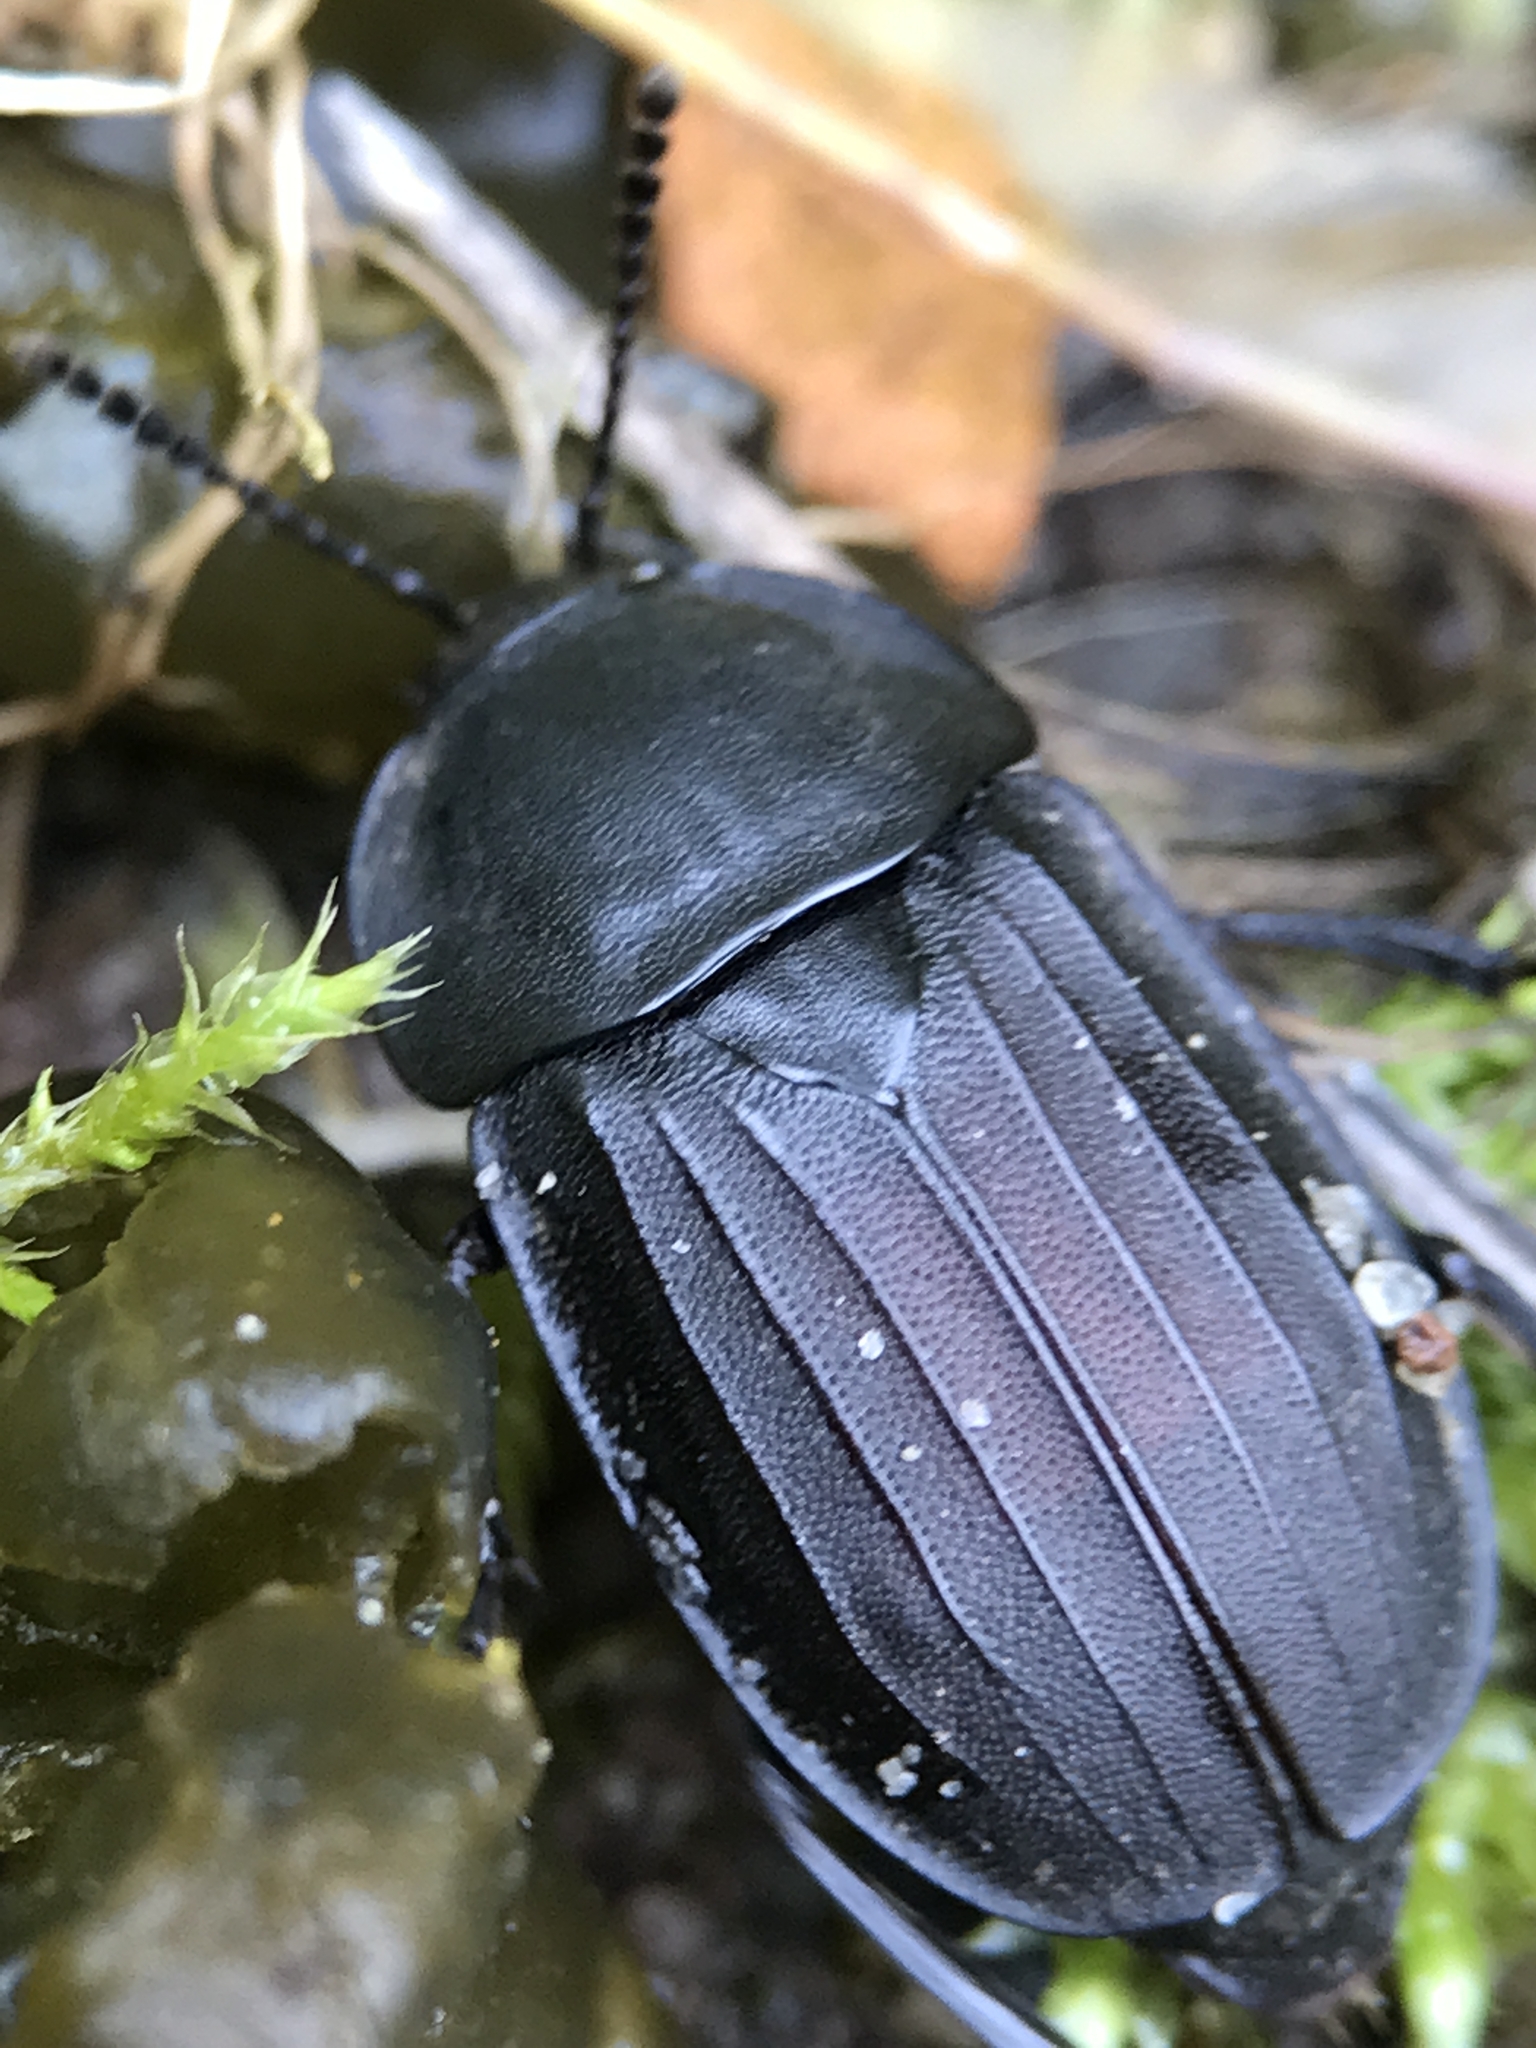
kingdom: Animalia
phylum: Arthropoda
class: Insecta
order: Coleoptera
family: Staphylinidae
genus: Silpha
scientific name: Silpha tristis
